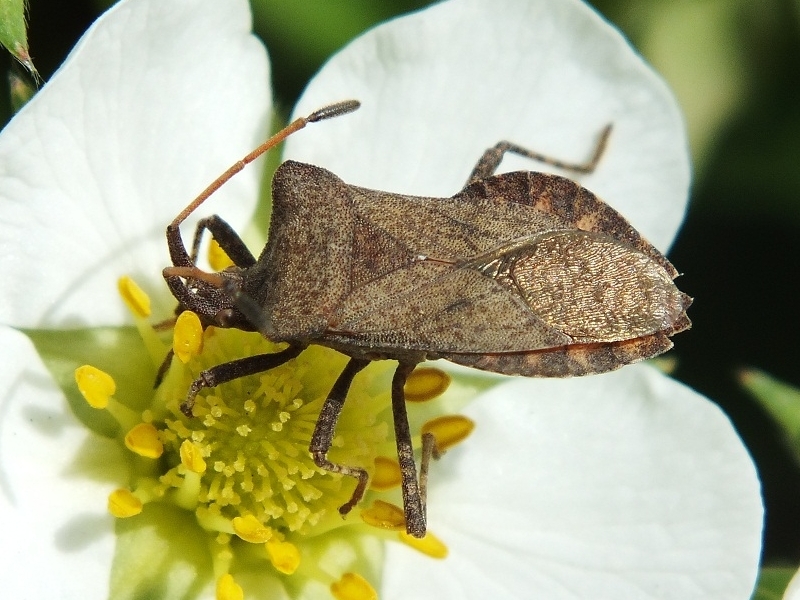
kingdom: Animalia
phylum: Arthropoda
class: Insecta
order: Hemiptera
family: Coreidae
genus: Coreus
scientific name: Coreus marginatus
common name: Dock bug
